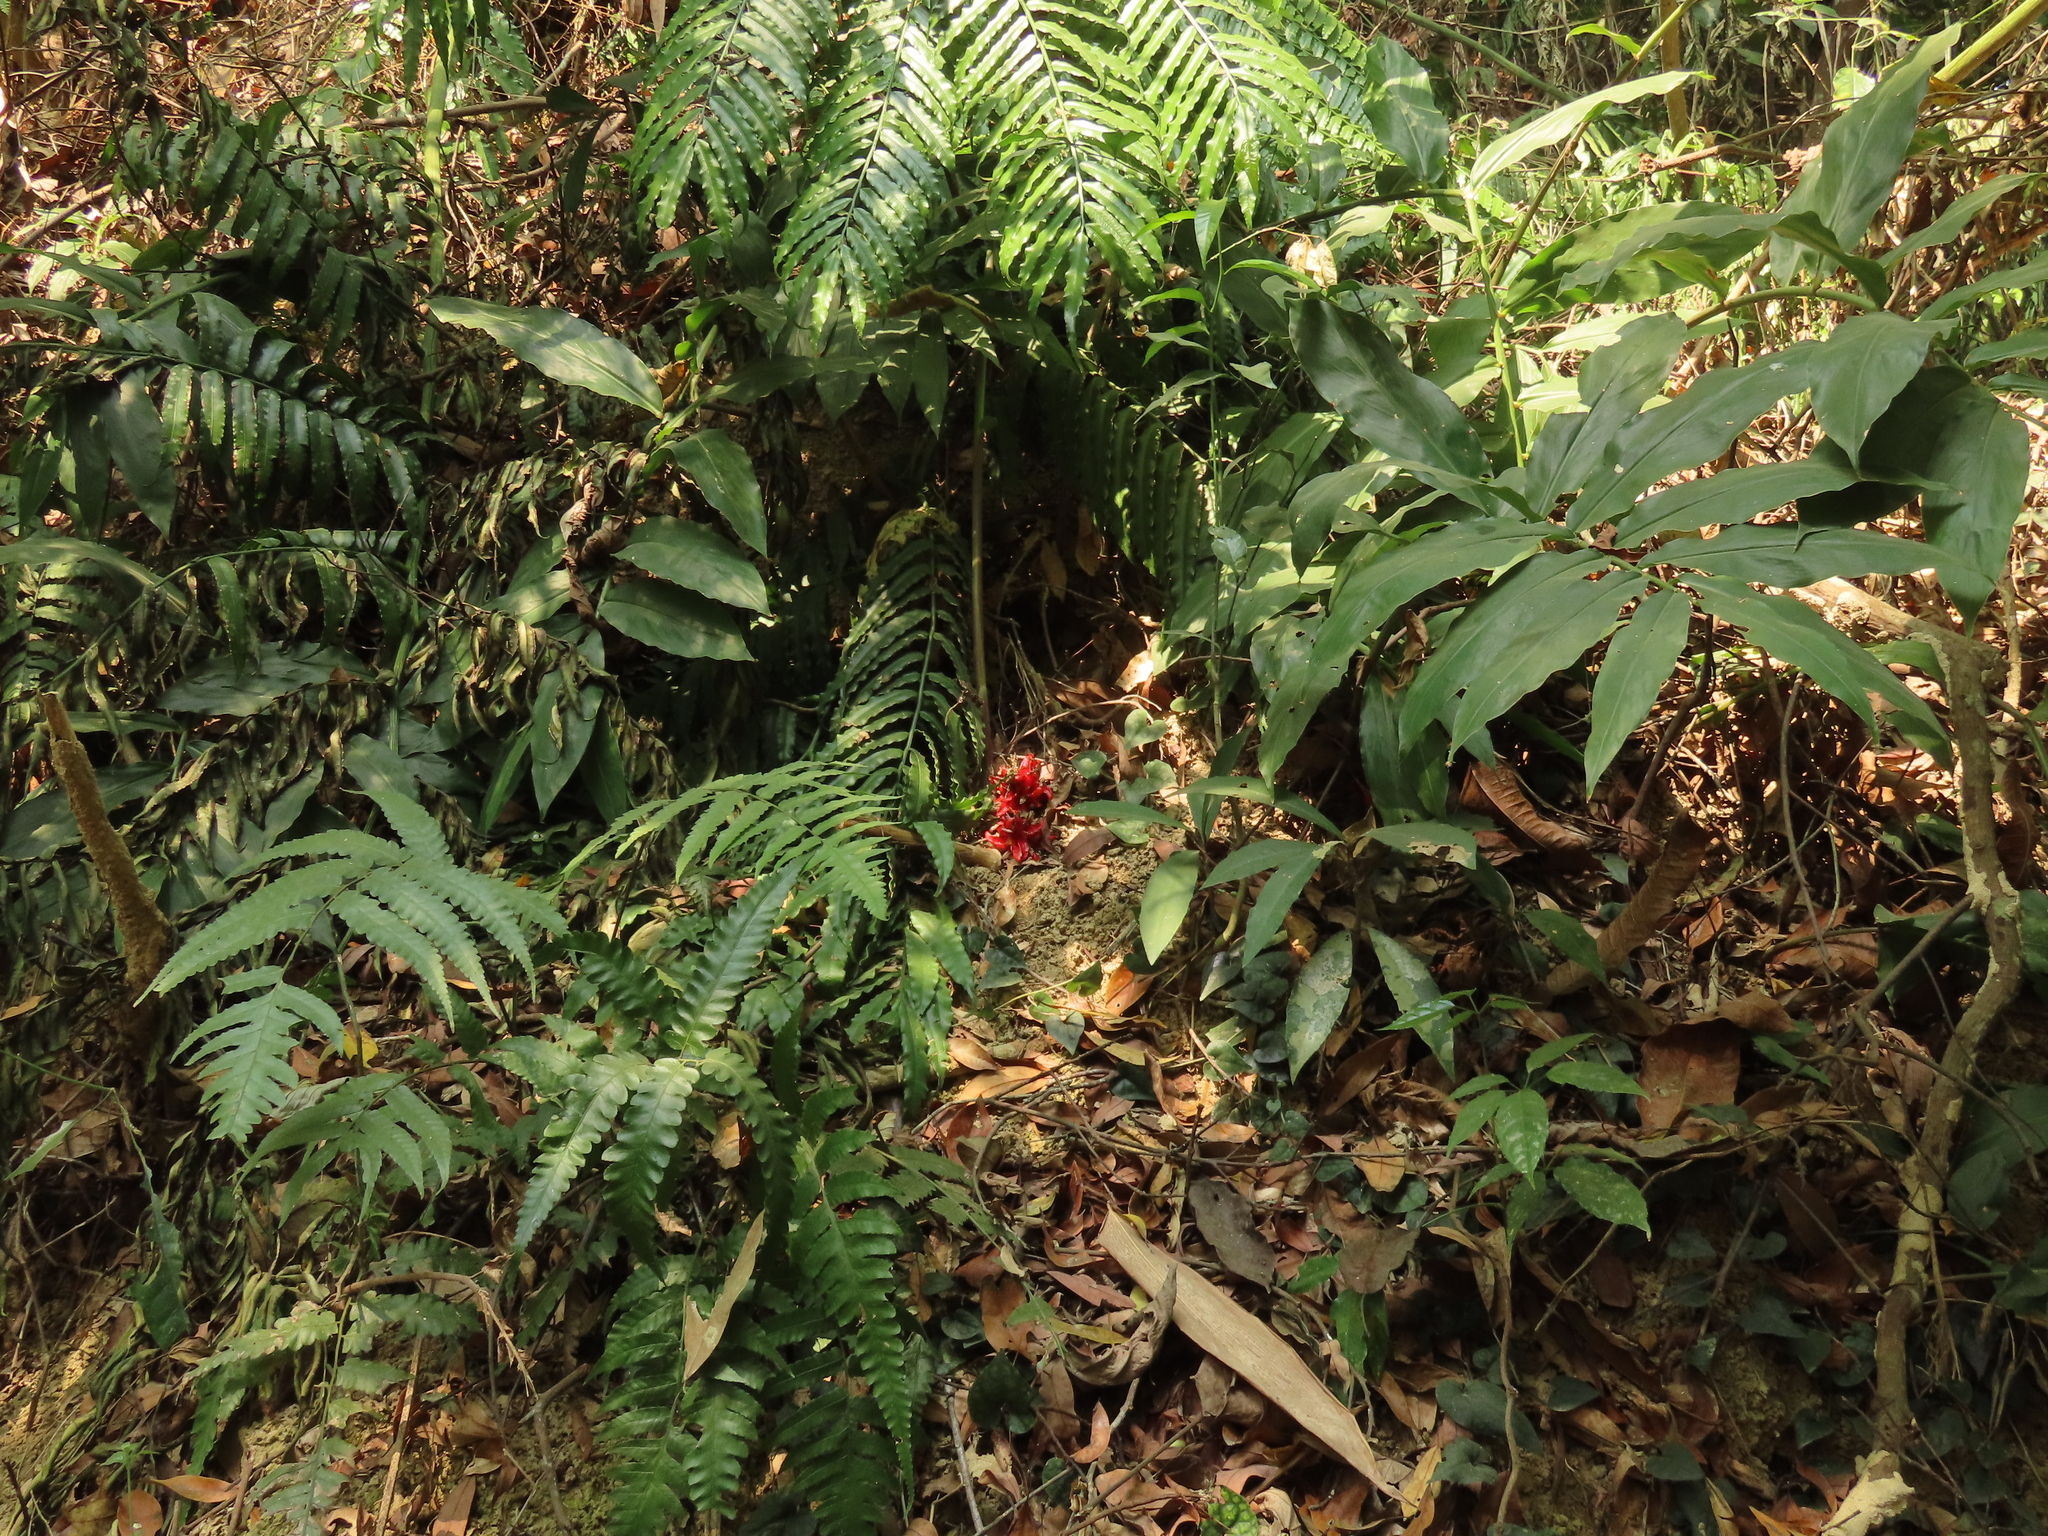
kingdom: Plantae
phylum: Tracheophyta
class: Liliopsida
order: Zingiberales
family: Zingiberaceae
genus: Zingiber
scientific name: Zingiber kawagoii
